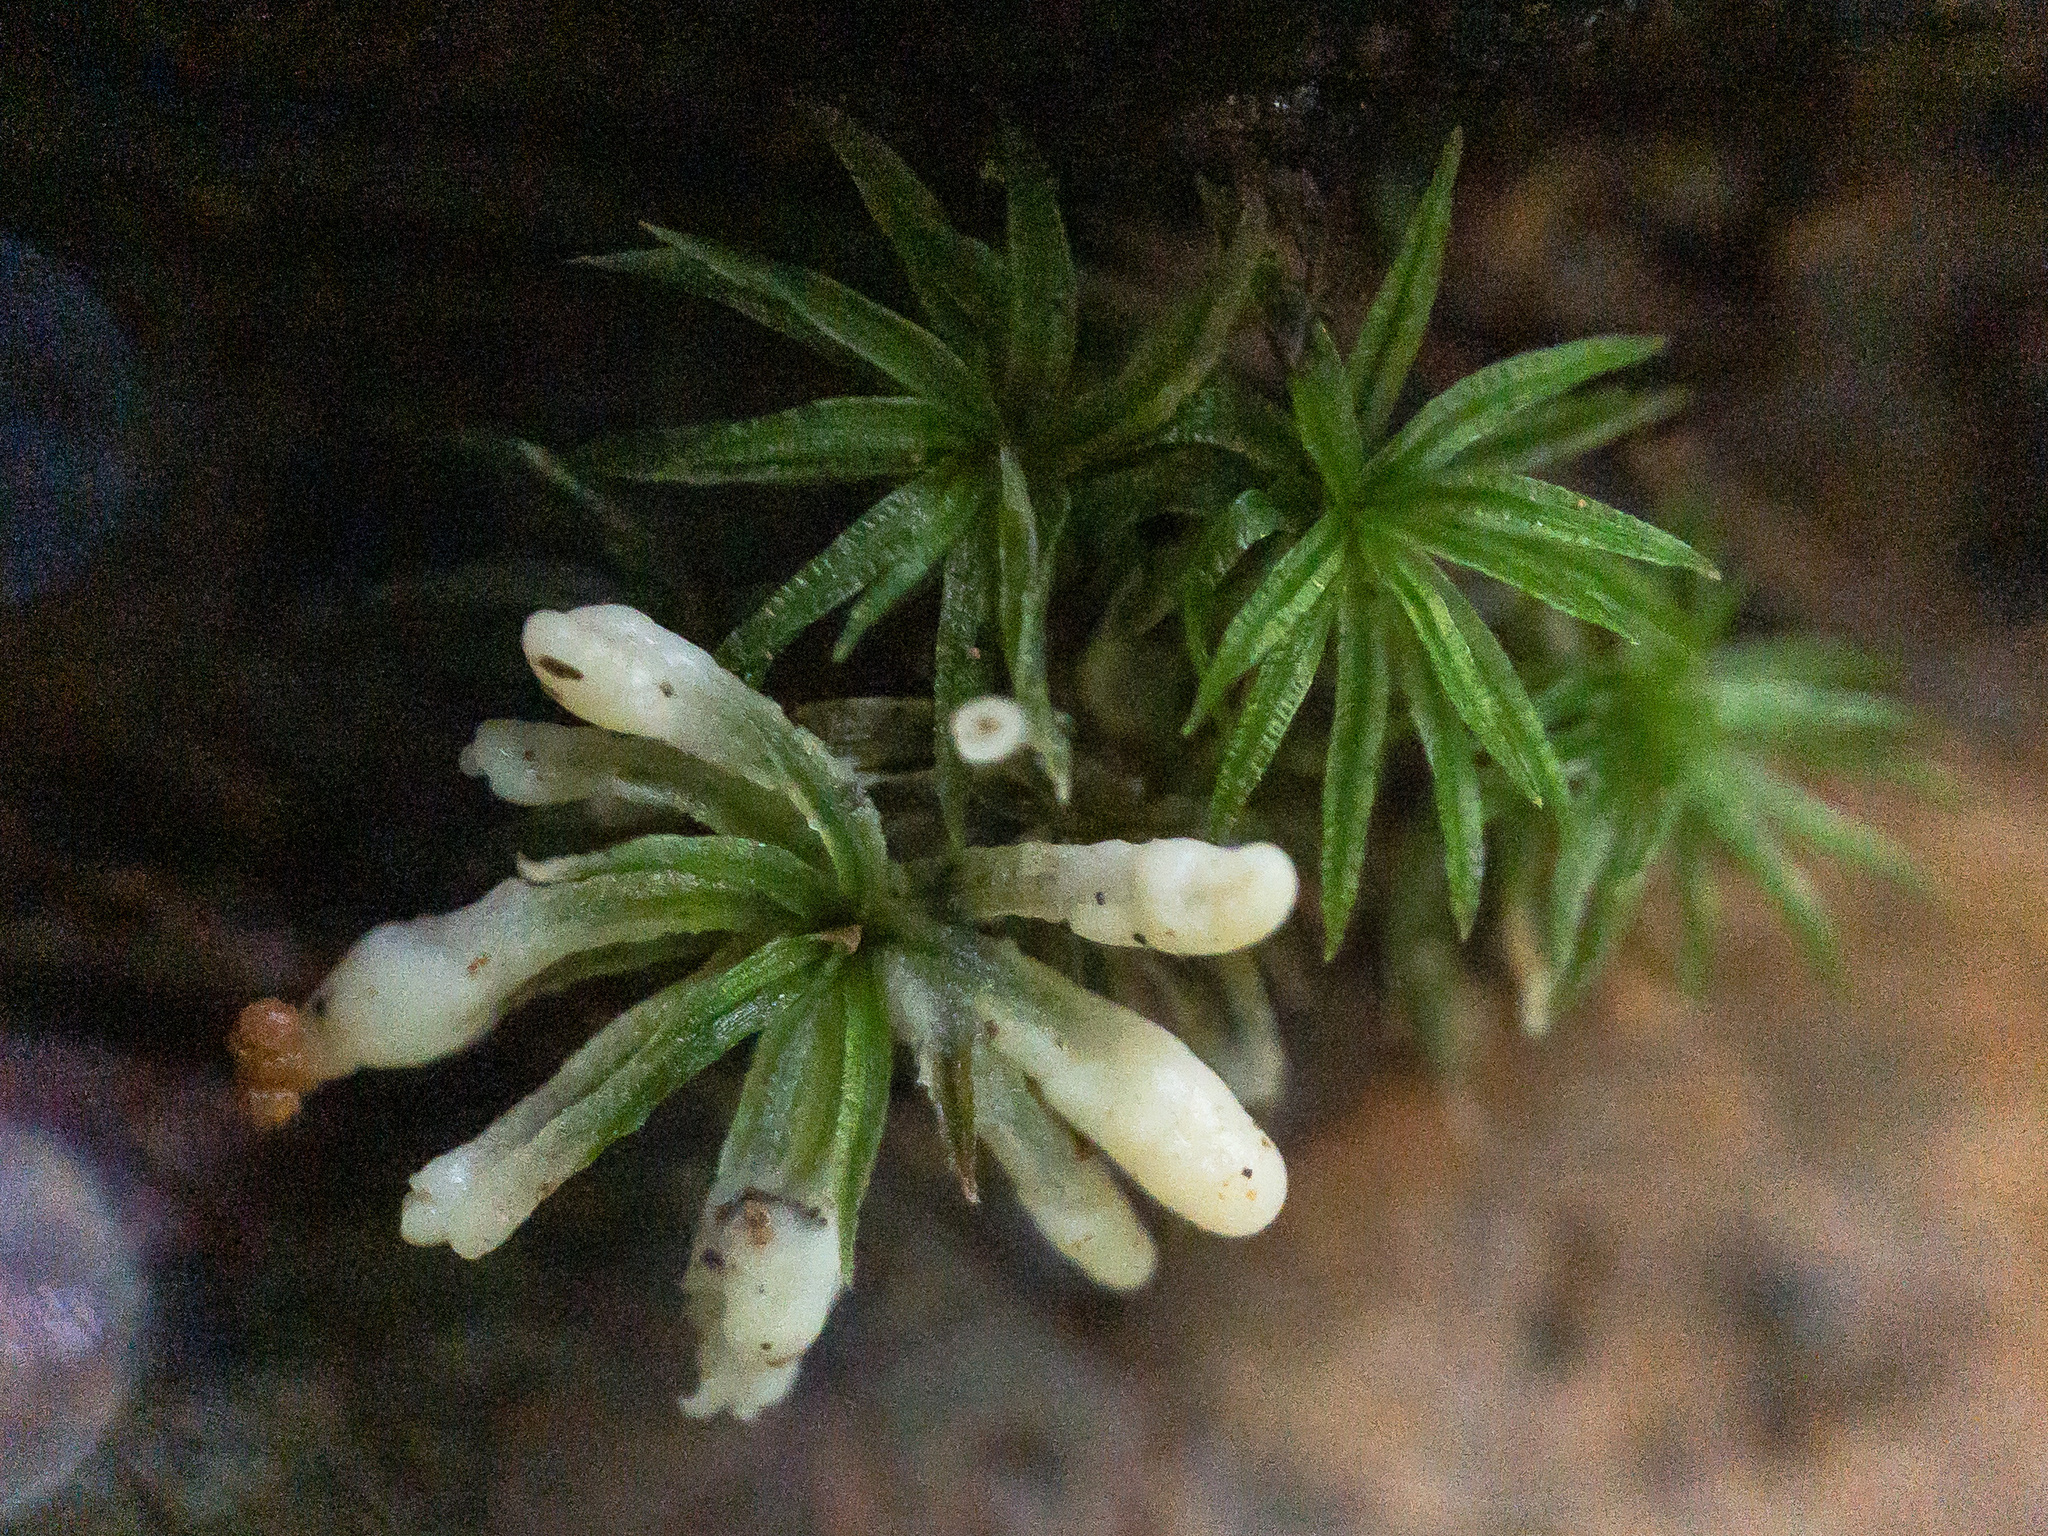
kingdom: Fungi
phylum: Basidiomycota
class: Agaricomycetes
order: Sebacinales
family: Sebacinaceae
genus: Sebacina
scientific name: Sebacina incrustans
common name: Enveloping crust
